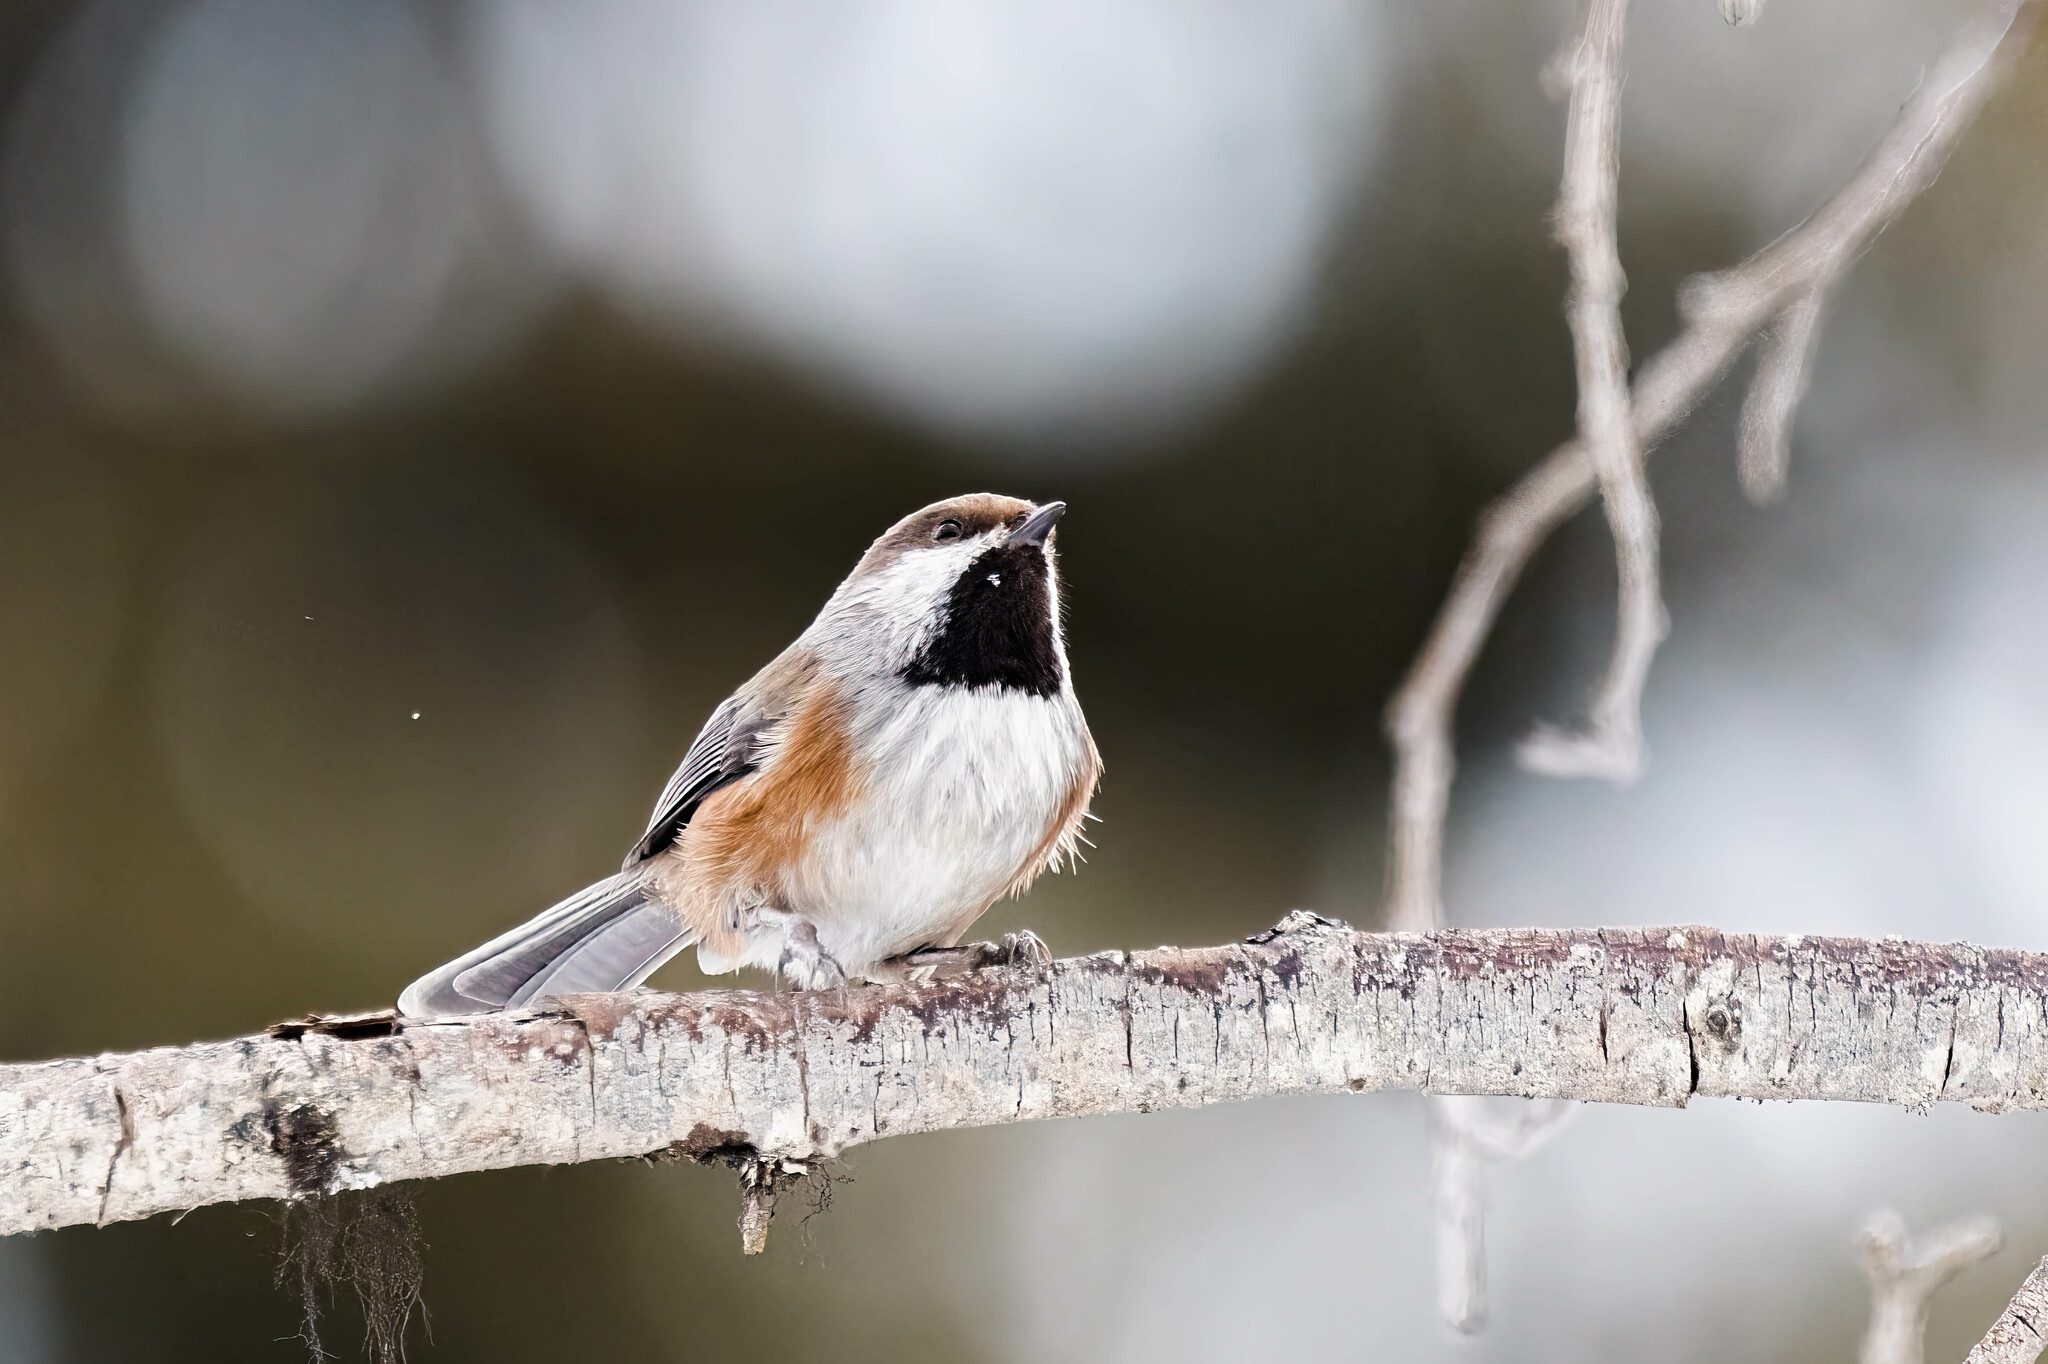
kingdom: Animalia
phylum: Chordata
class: Aves
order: Passeriformes
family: Paridae
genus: Poecile
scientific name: Poecile hudsonicus
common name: Boreal chickadee
